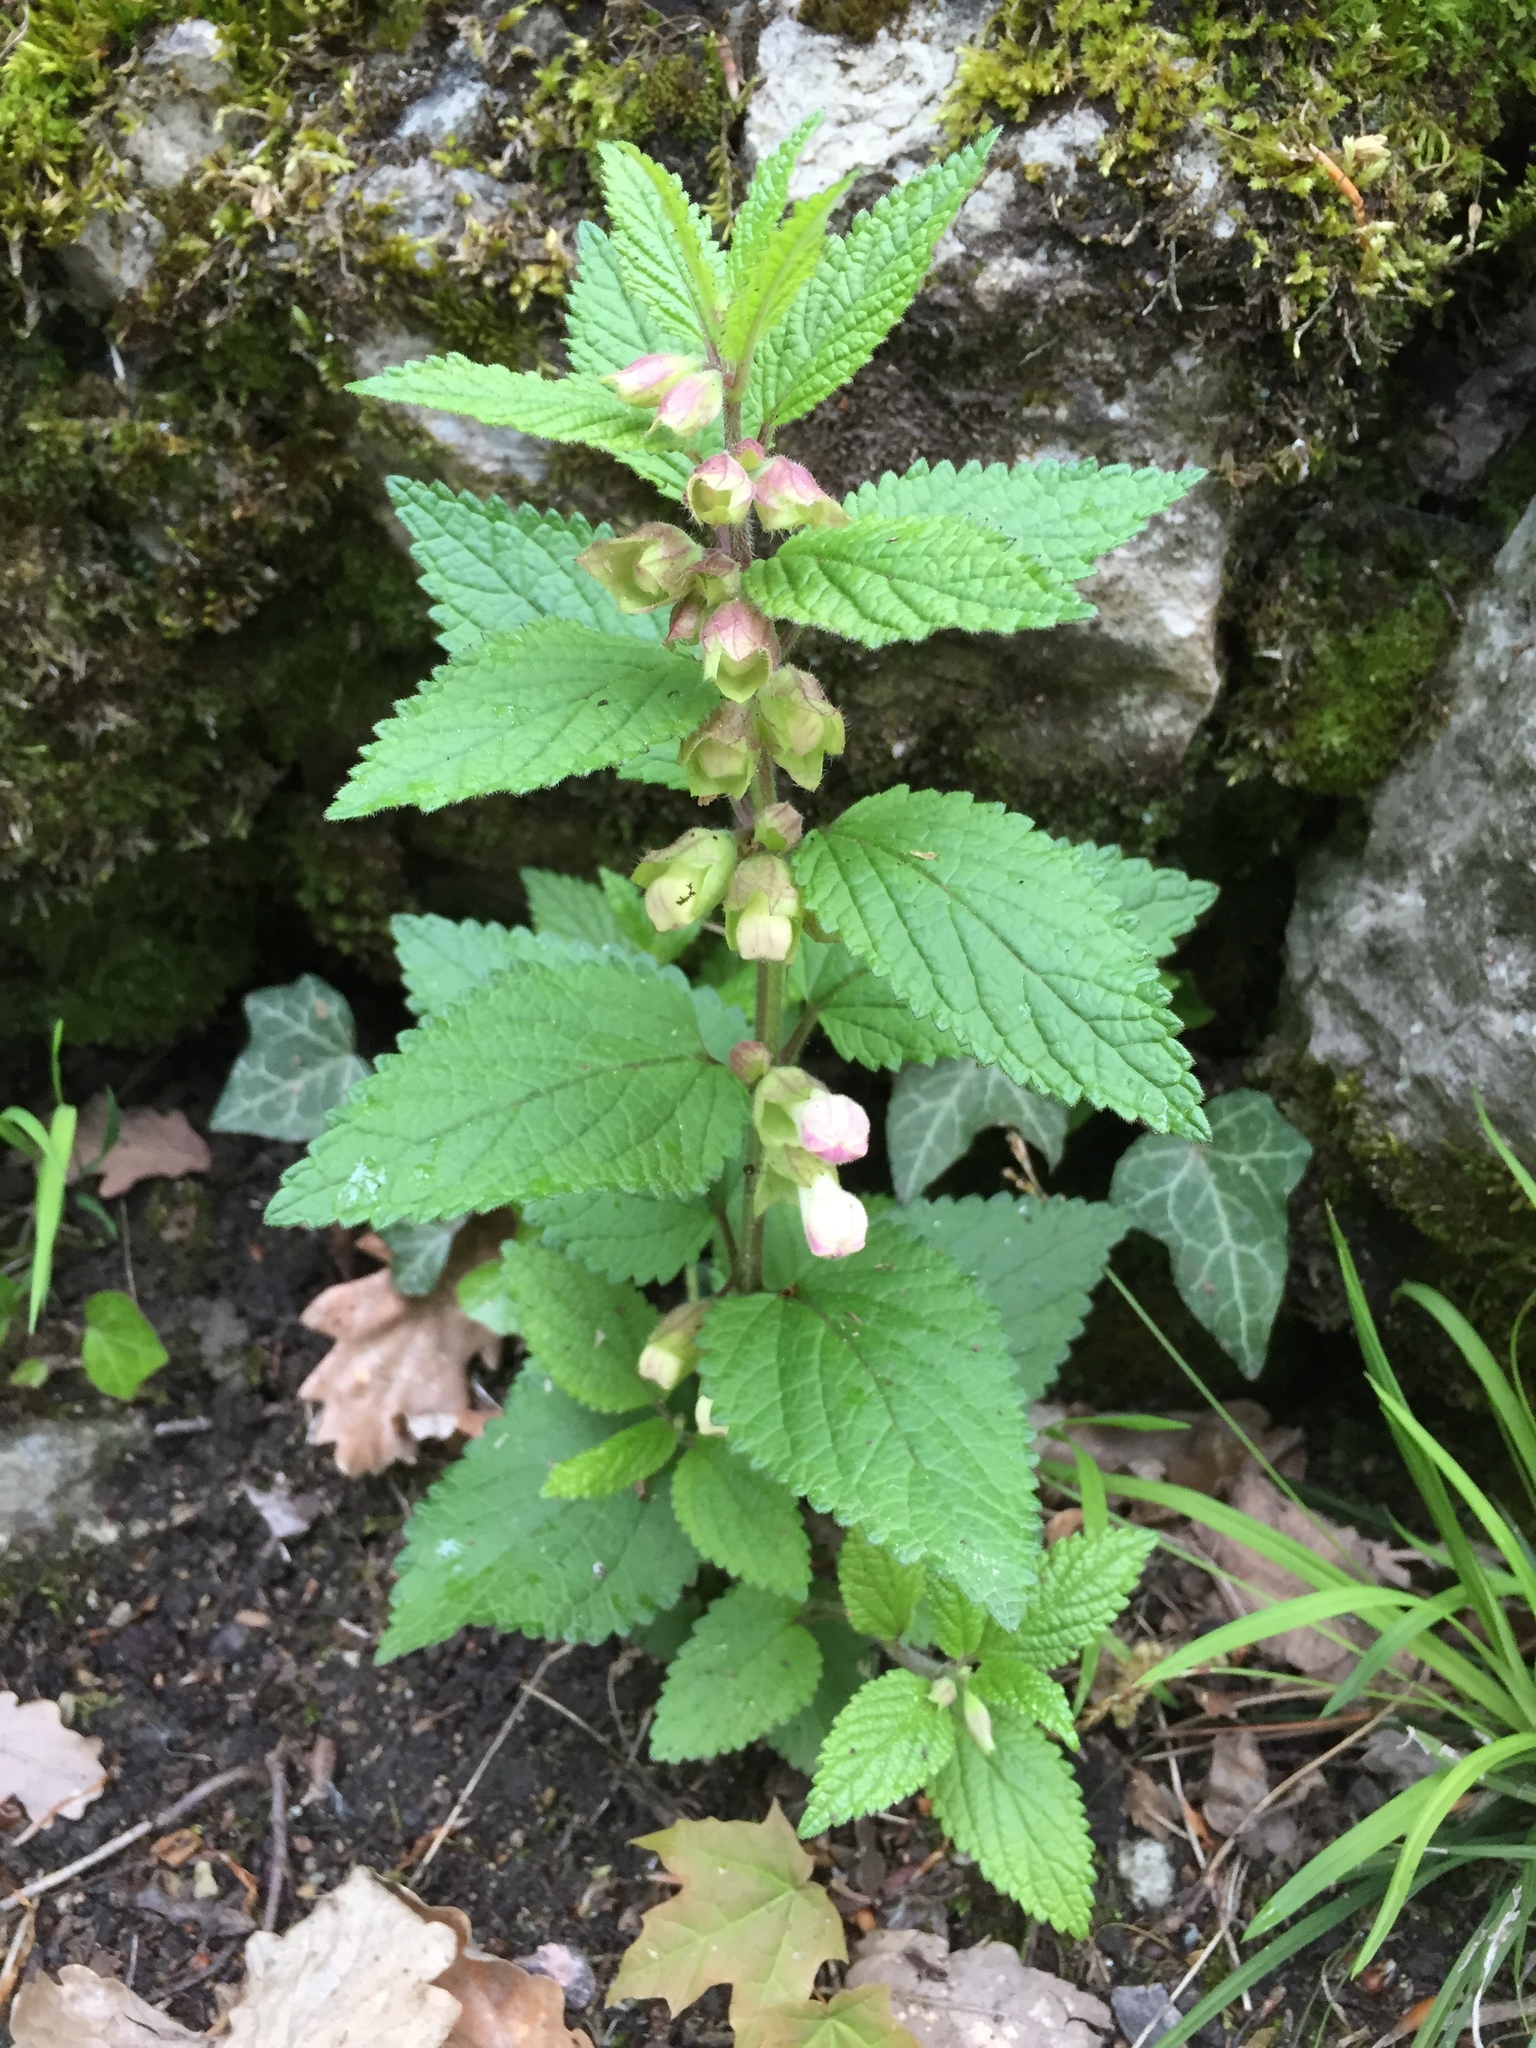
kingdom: Plantae
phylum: Tracheophyta
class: Magnoliopsida
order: Lamiales
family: Lamiaceae
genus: Melittis
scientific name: Melittis melissophyllum
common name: Bastard balm
